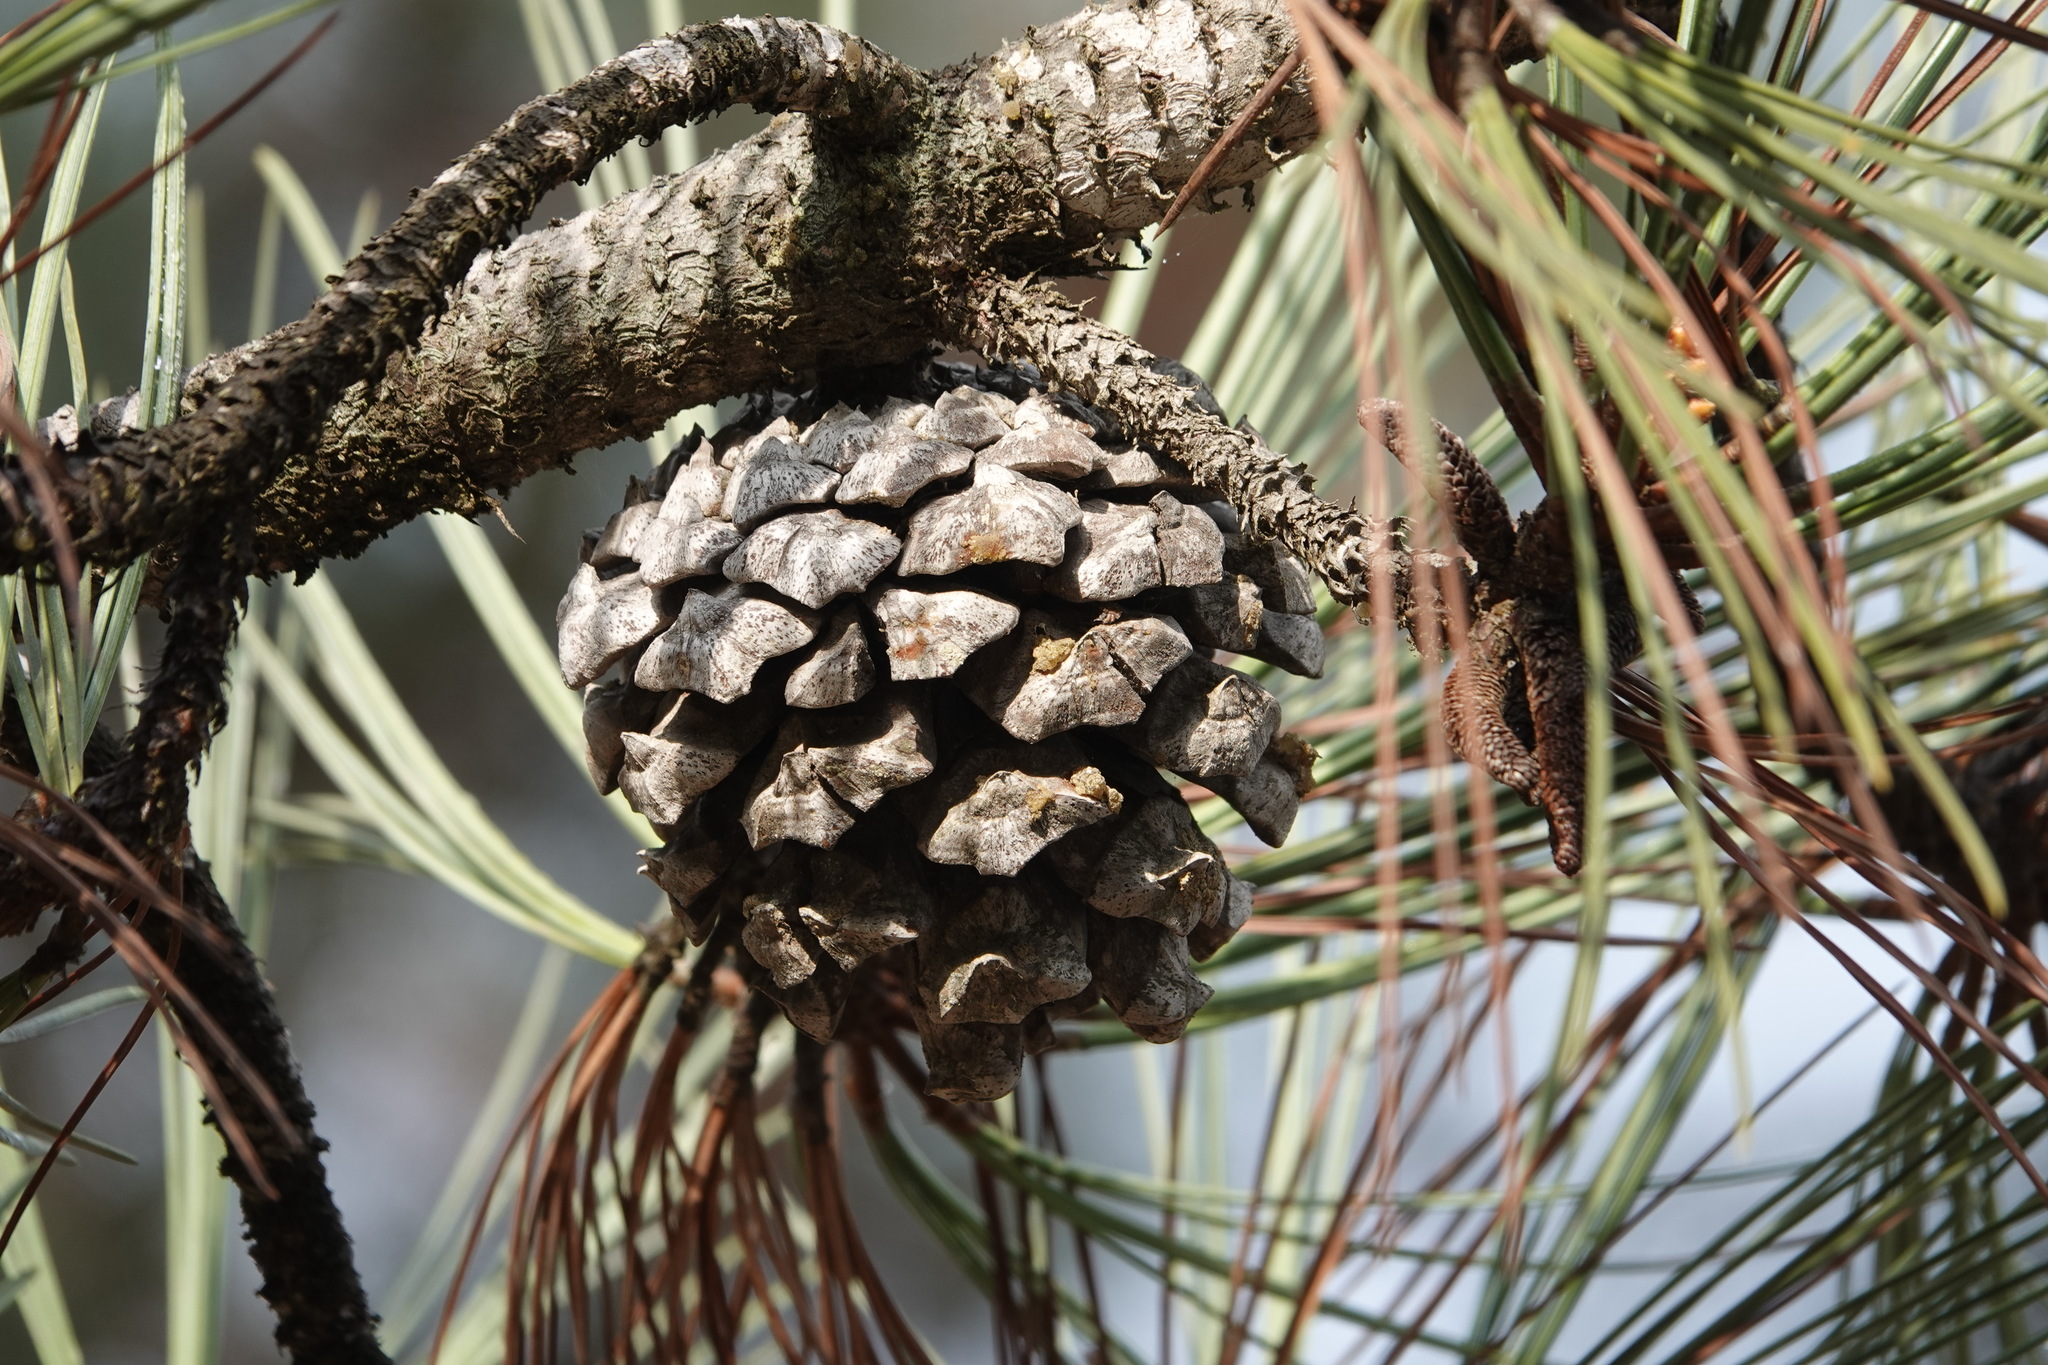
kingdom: Plantae
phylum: Tracheophyta
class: Pinopsida
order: Pinales
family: Pinaceae
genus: Pinus
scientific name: Pinus torreyana
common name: Torrey pine
